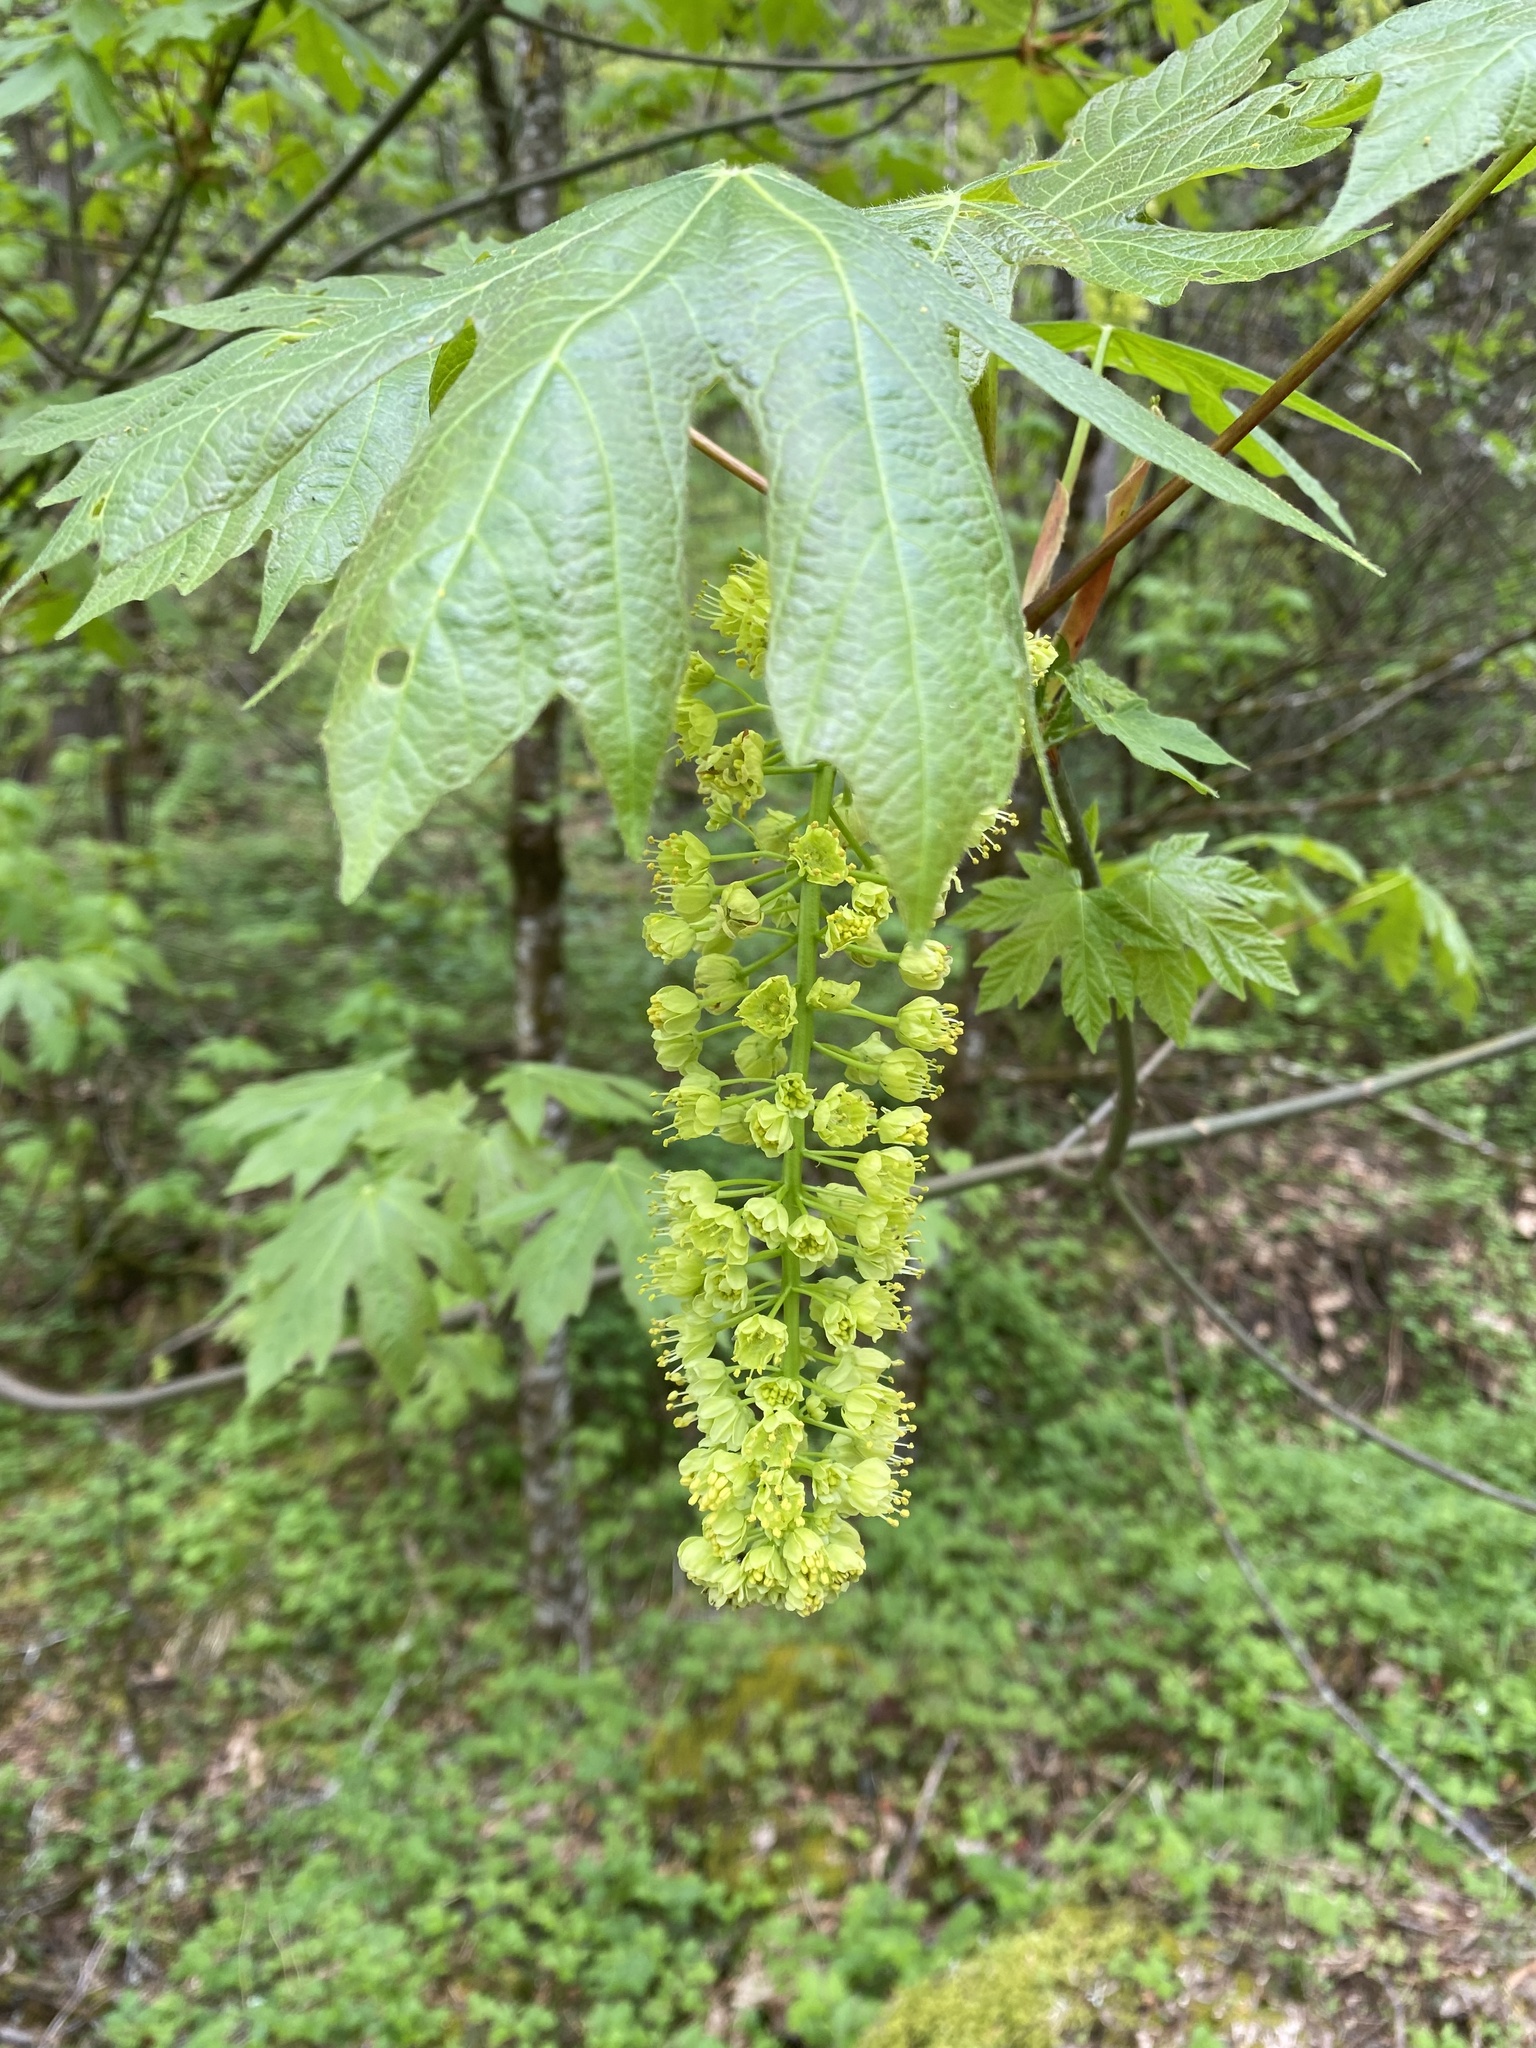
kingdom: Plantae
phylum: Tracheophyta
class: Magnoliopsida
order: Sapindales
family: Sapindaceae
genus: Acer
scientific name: Acer macrophyllum
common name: Oregon maple
